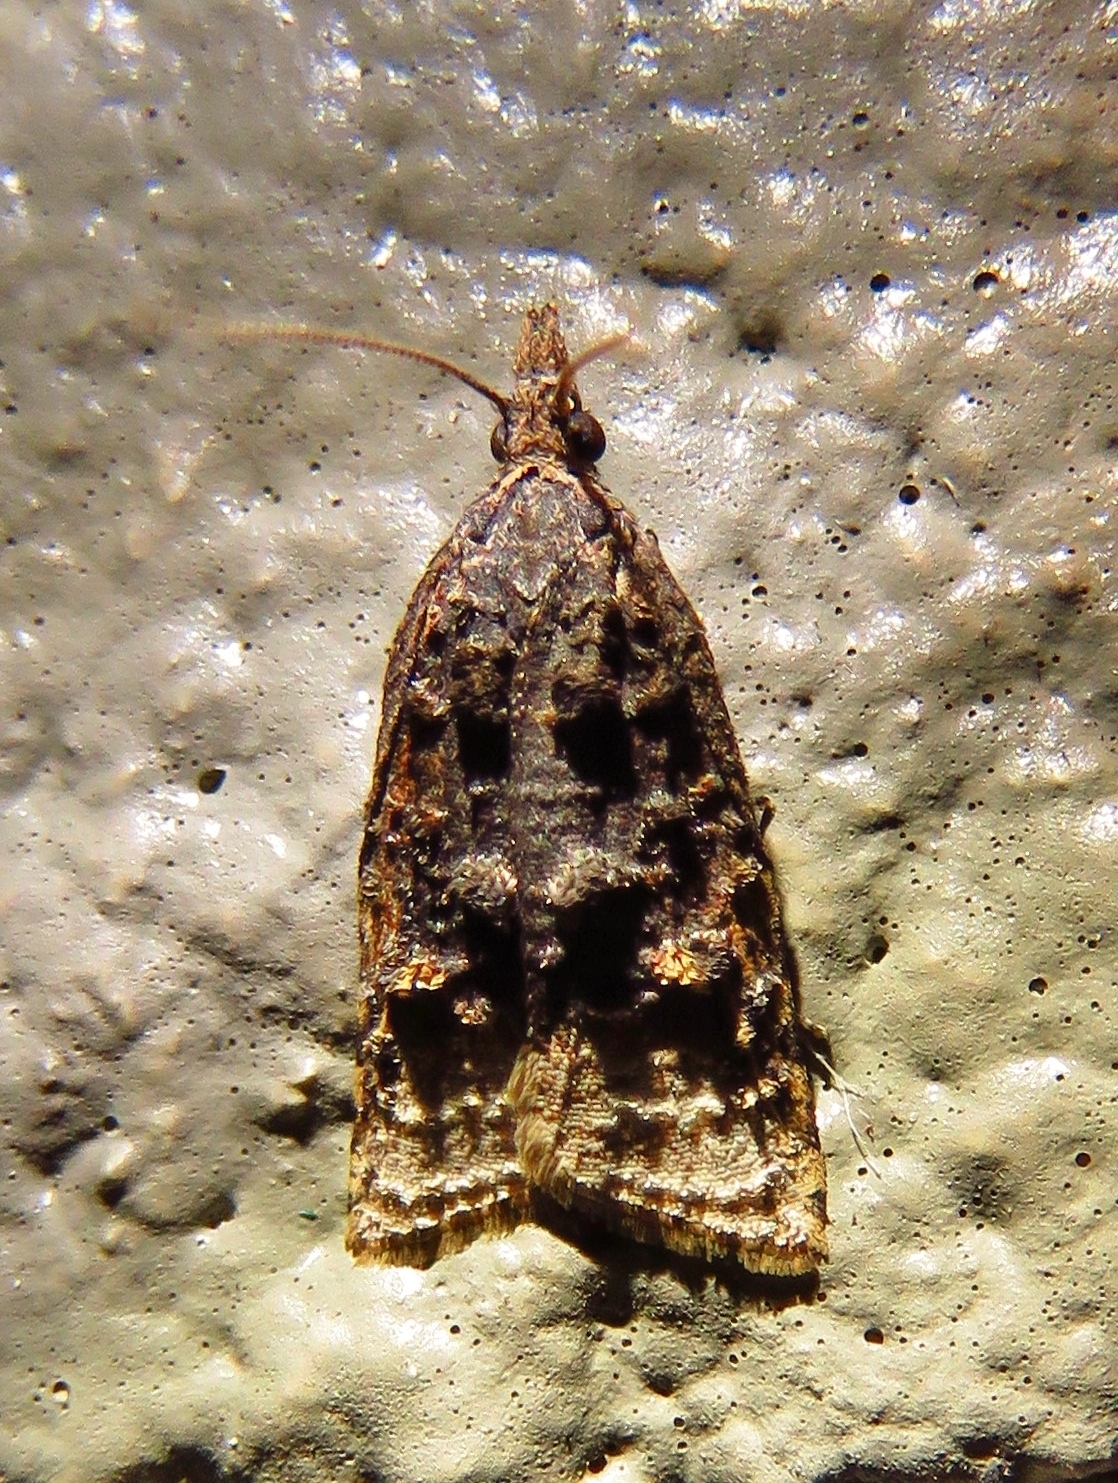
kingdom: Animalia
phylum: Arthropoda
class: Insecta
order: Lepidoptera
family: Tortricidae
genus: Platynota
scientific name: Platynota flavedana
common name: Black-shaded platynota moth
